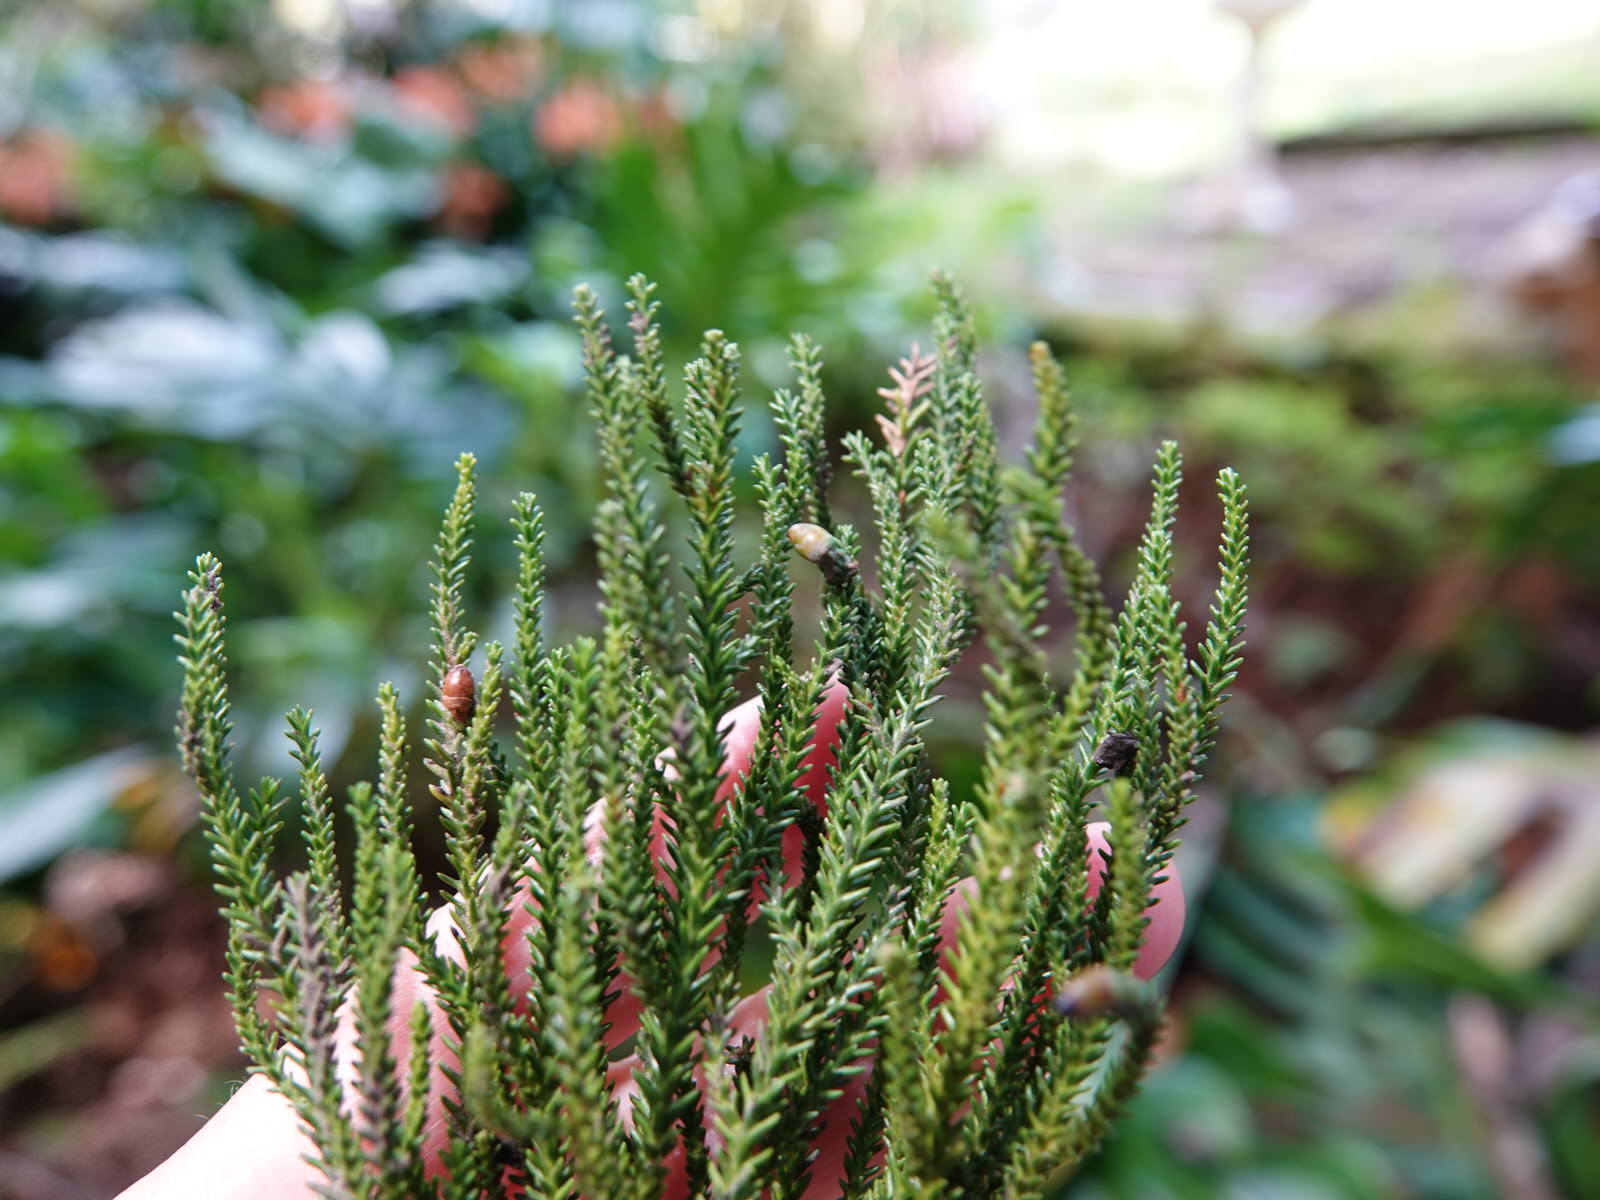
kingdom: Plantae
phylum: Tracheophyta
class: Pinopsida
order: Pinales
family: Podocarpaceae
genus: Dacrydium
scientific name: Dacrydium cupressinum
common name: Red pine
